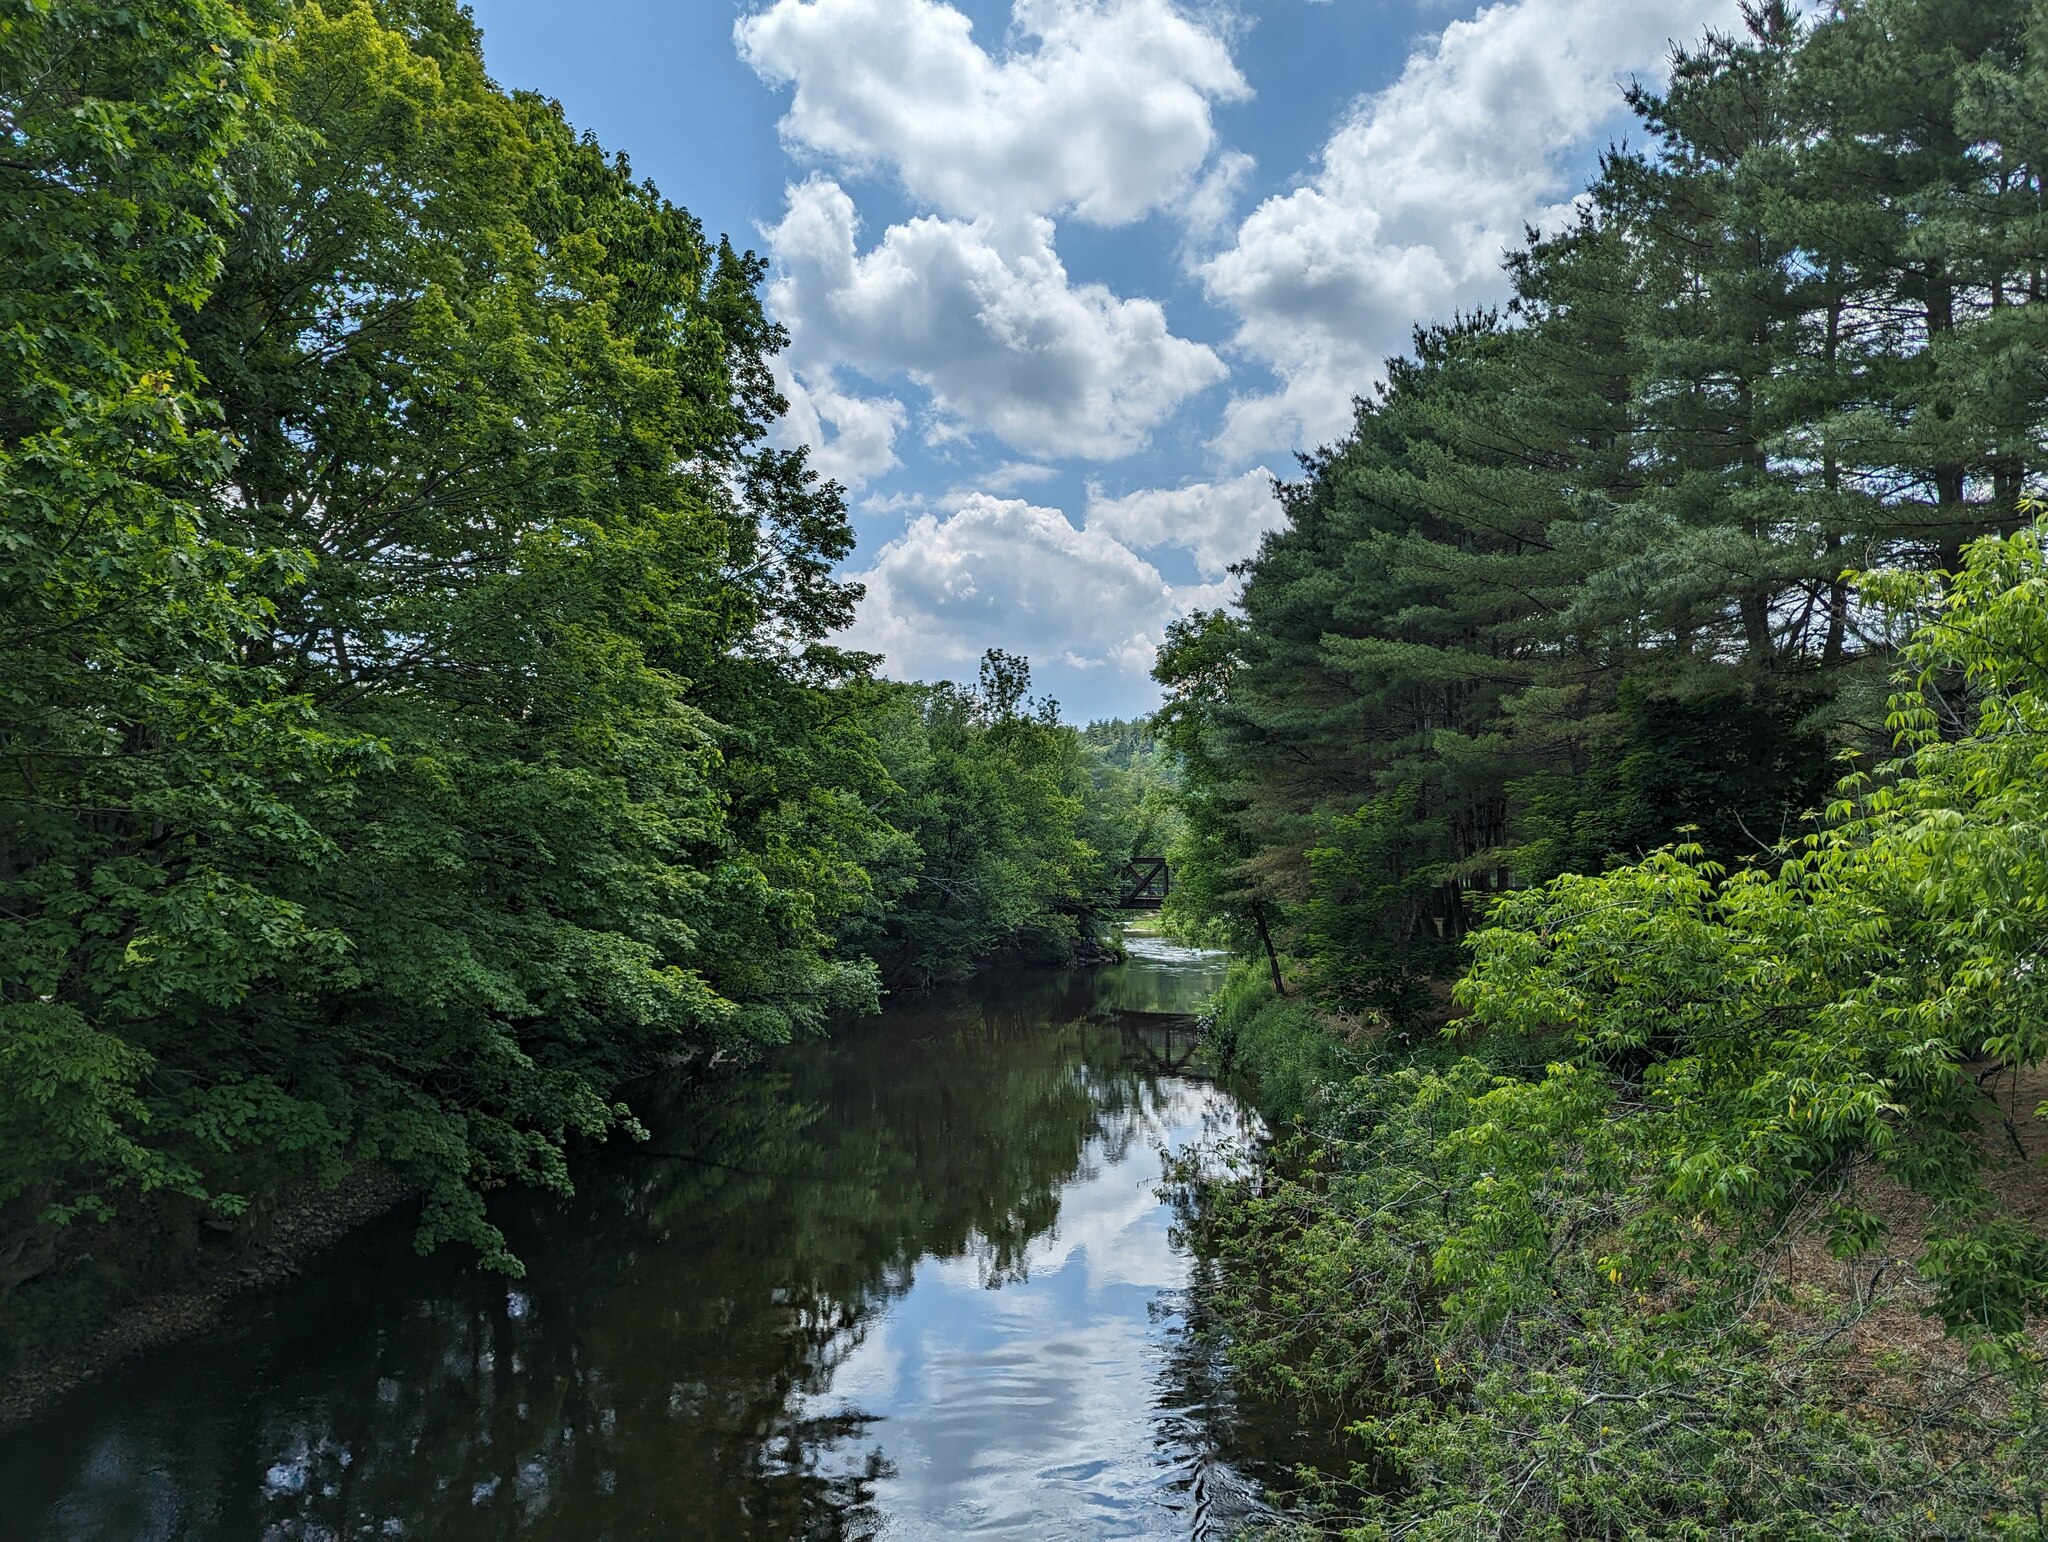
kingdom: Plantae
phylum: Tracheophyta
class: Pinopsida
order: Pinales
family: Pinaceae
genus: Pinus
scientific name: Pinus strobus
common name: Weymouth pine
